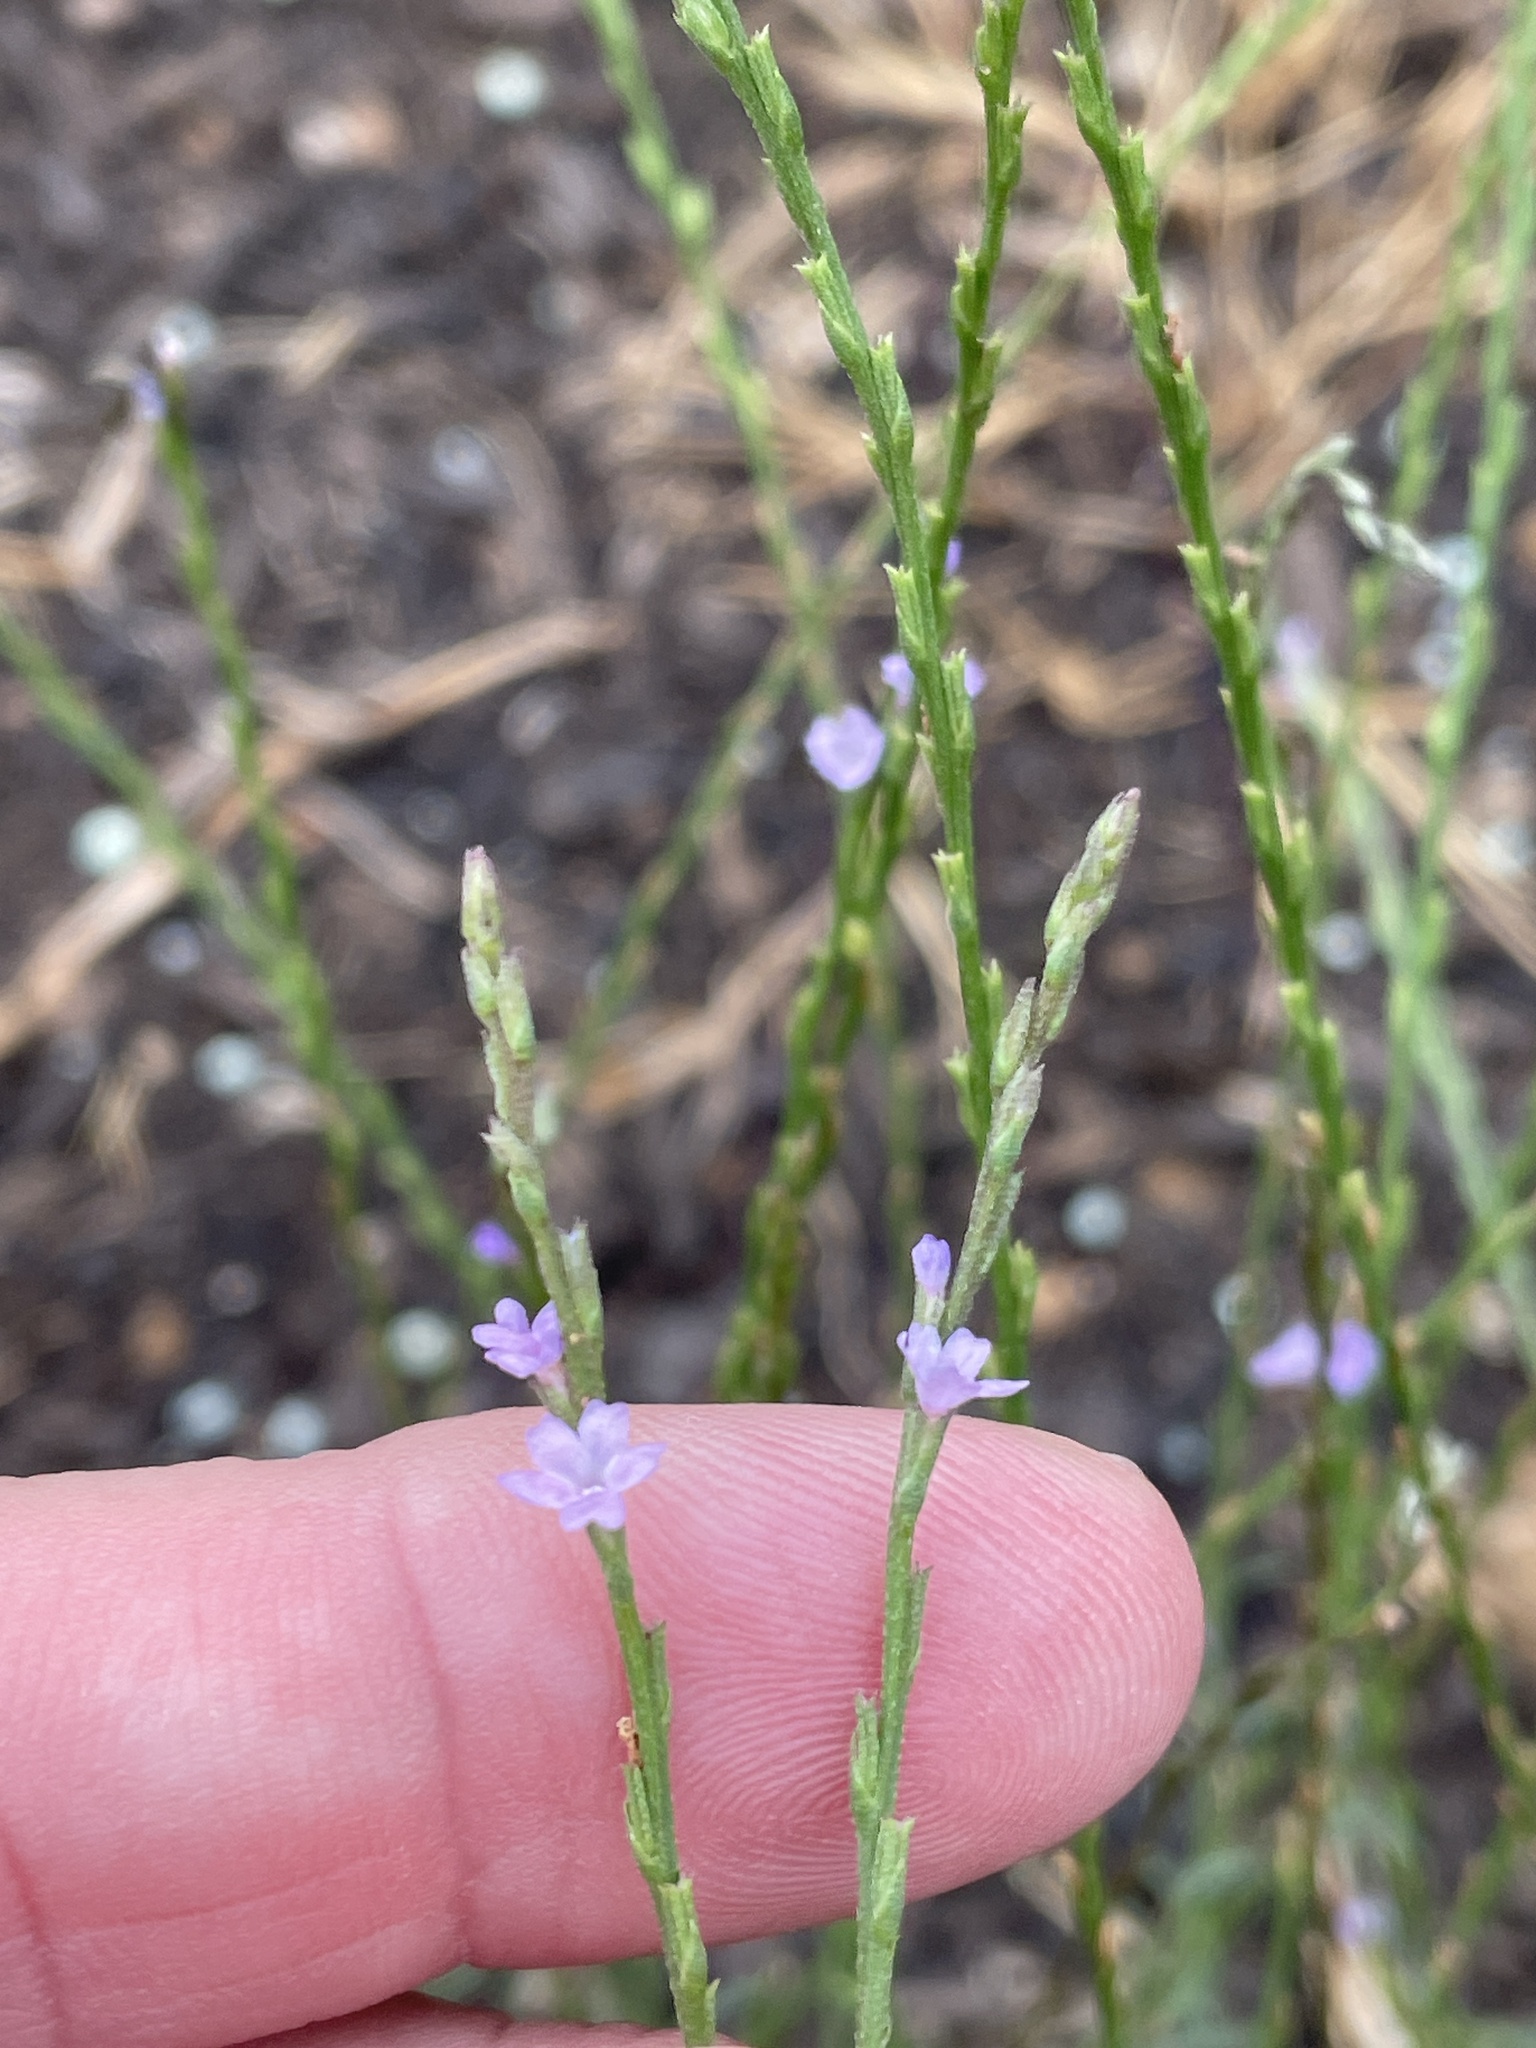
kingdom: Plantae
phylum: Tracheophyta
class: Magnoliopsida
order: Lamiales
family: Verbenaceae
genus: Verbena
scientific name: Verbena halei
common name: Texas vervain
